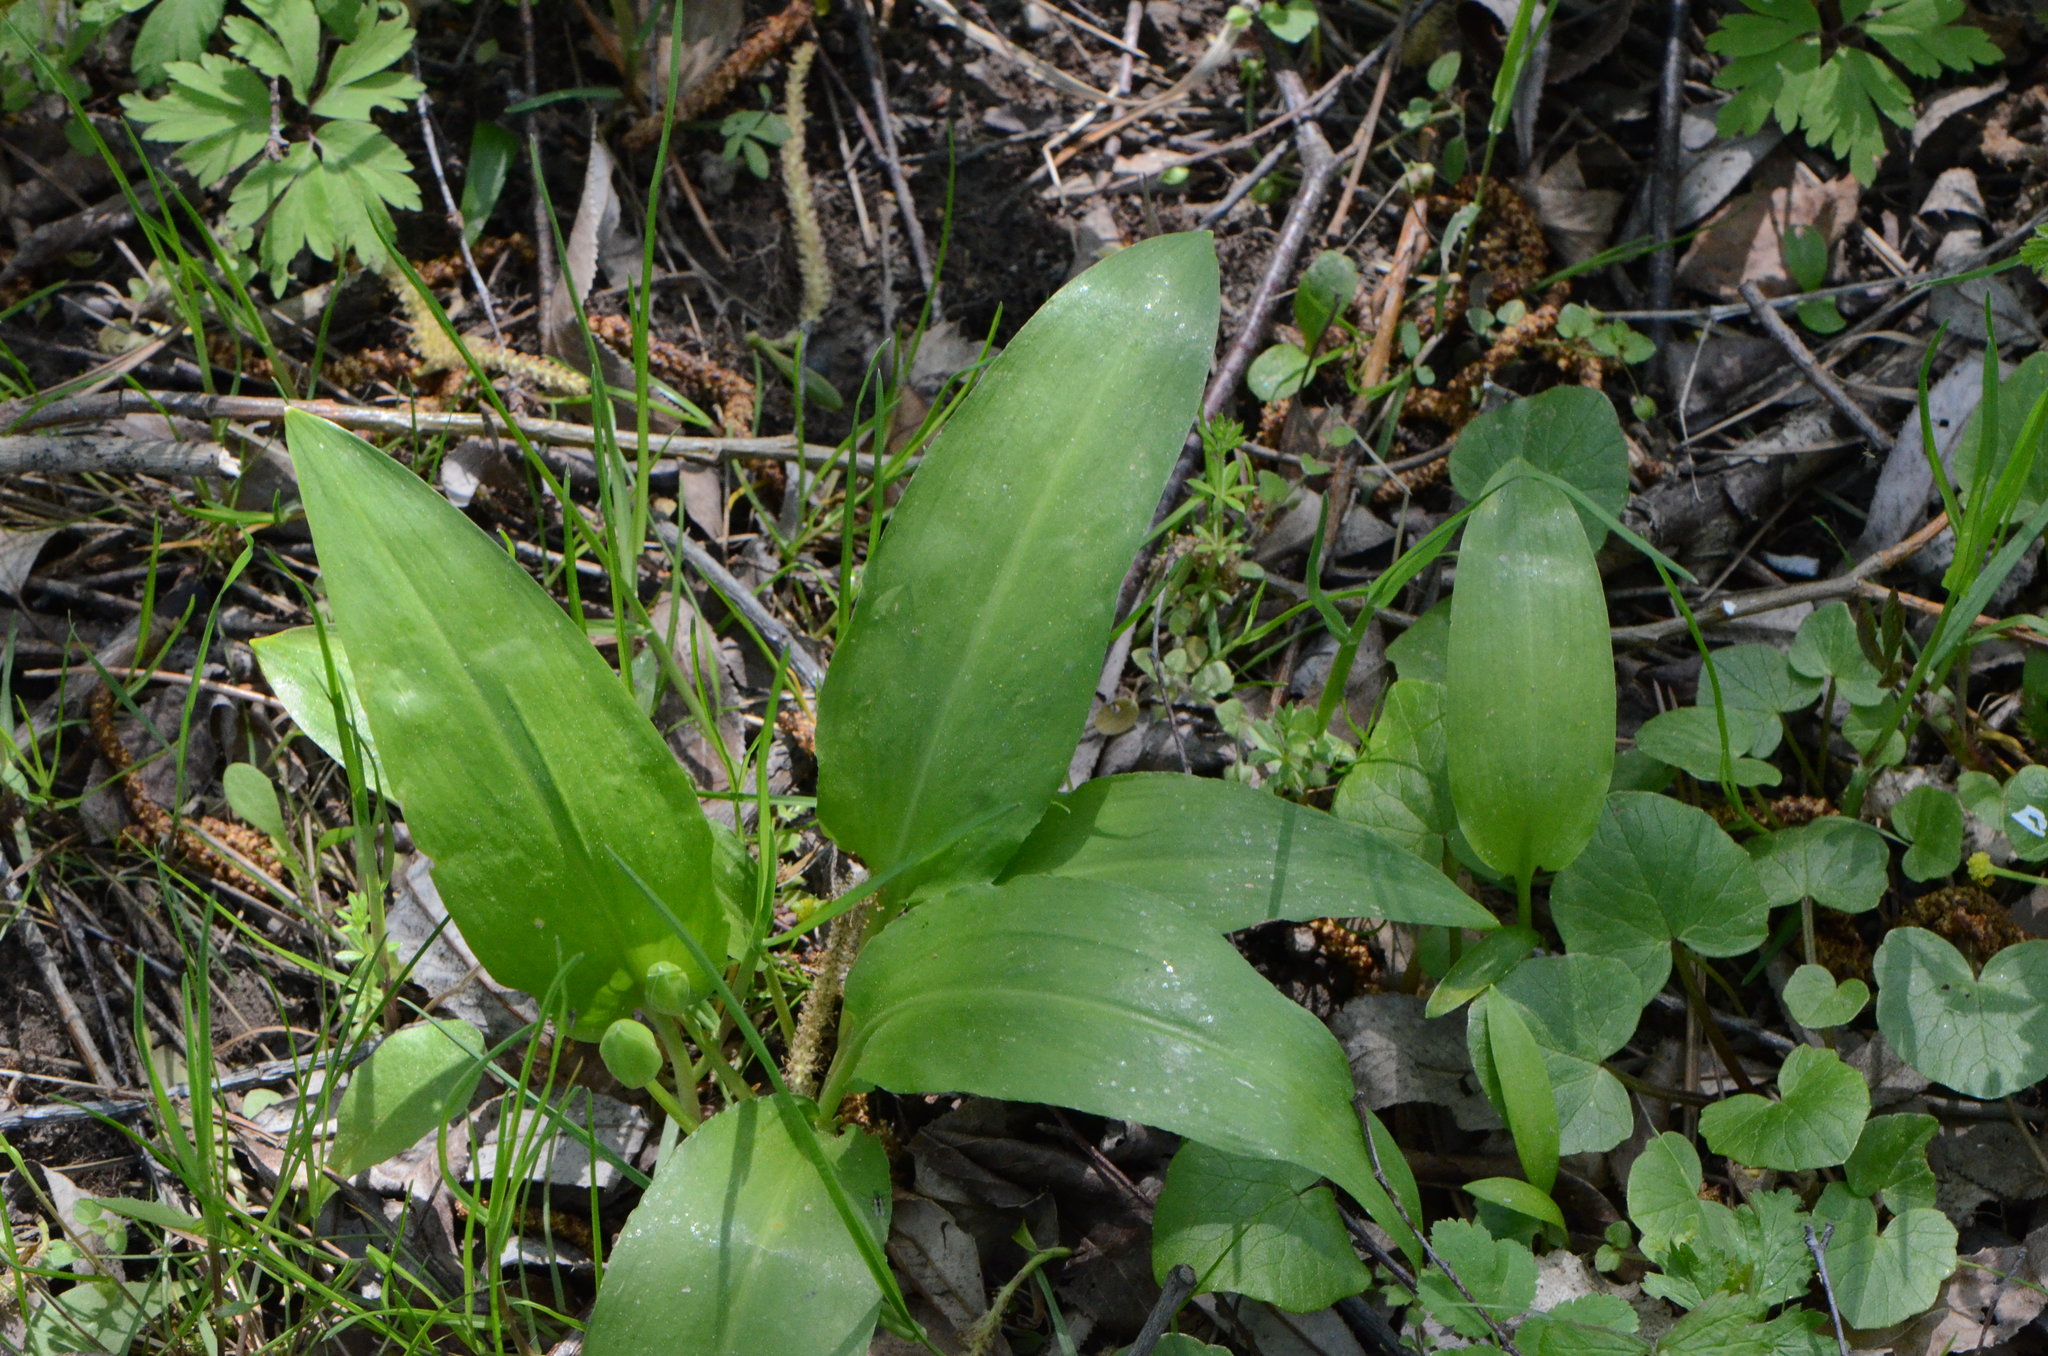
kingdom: Plantae
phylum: Tracheophyta
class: Liliopsida
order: Asparagales
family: Amaryllidaceae
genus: Allium
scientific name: Allium ursinum
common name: Ramsons
